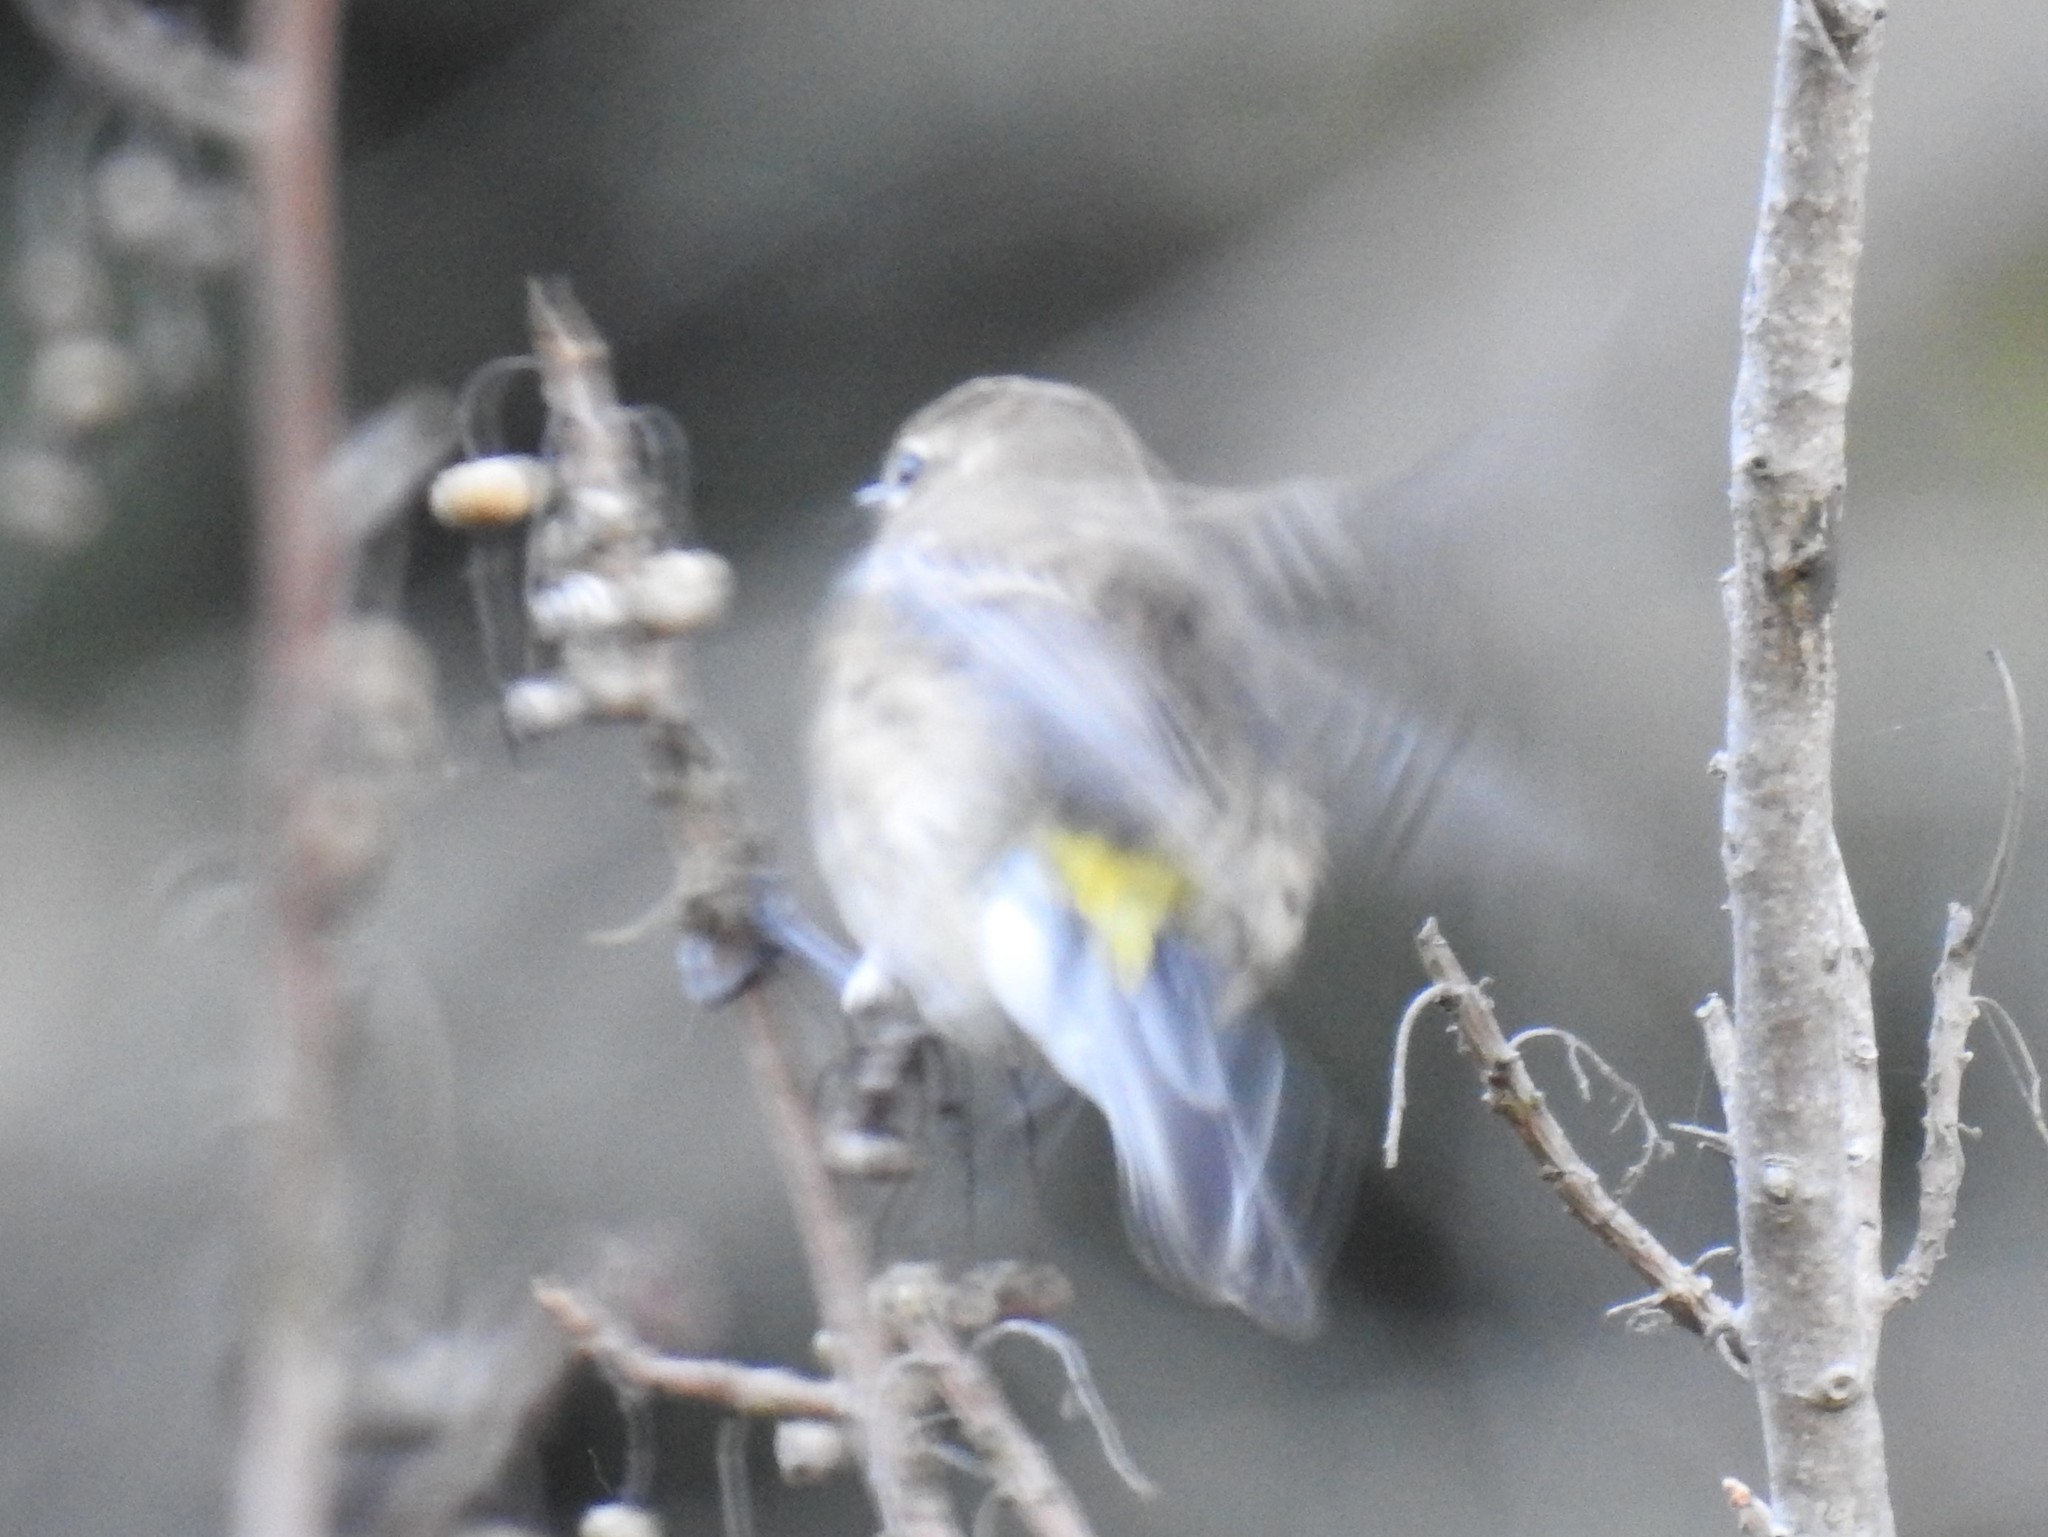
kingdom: Animalia
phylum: Chordata
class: Aves
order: Passeriformes
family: Parulidae
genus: Setophaga
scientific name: Setophaga coronata
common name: Myrtle warbler
